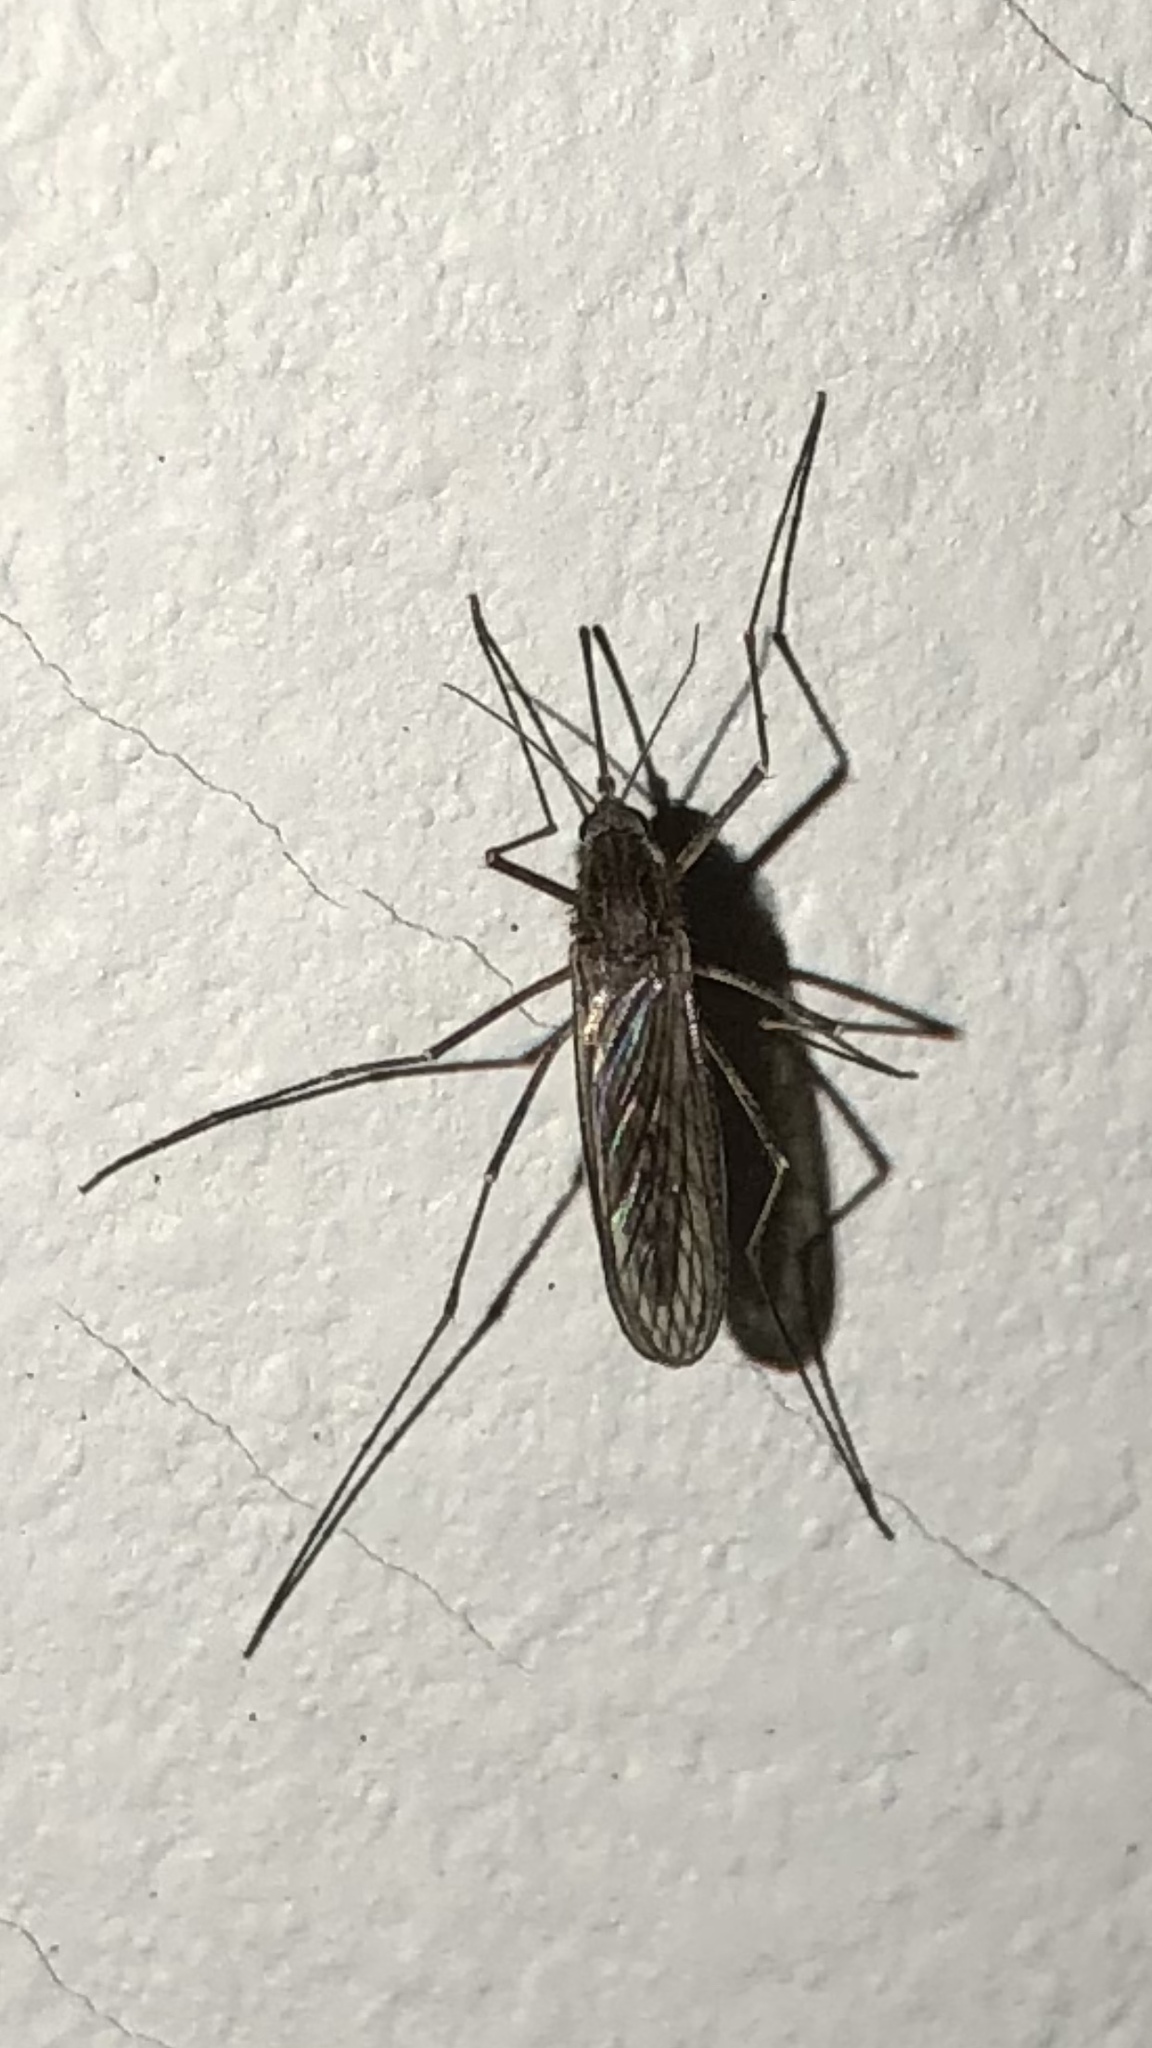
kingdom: Animalia
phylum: Arthropoda
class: Insecta
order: Diptera
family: Culicidae
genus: Culiseta
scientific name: Culiseta inornata
